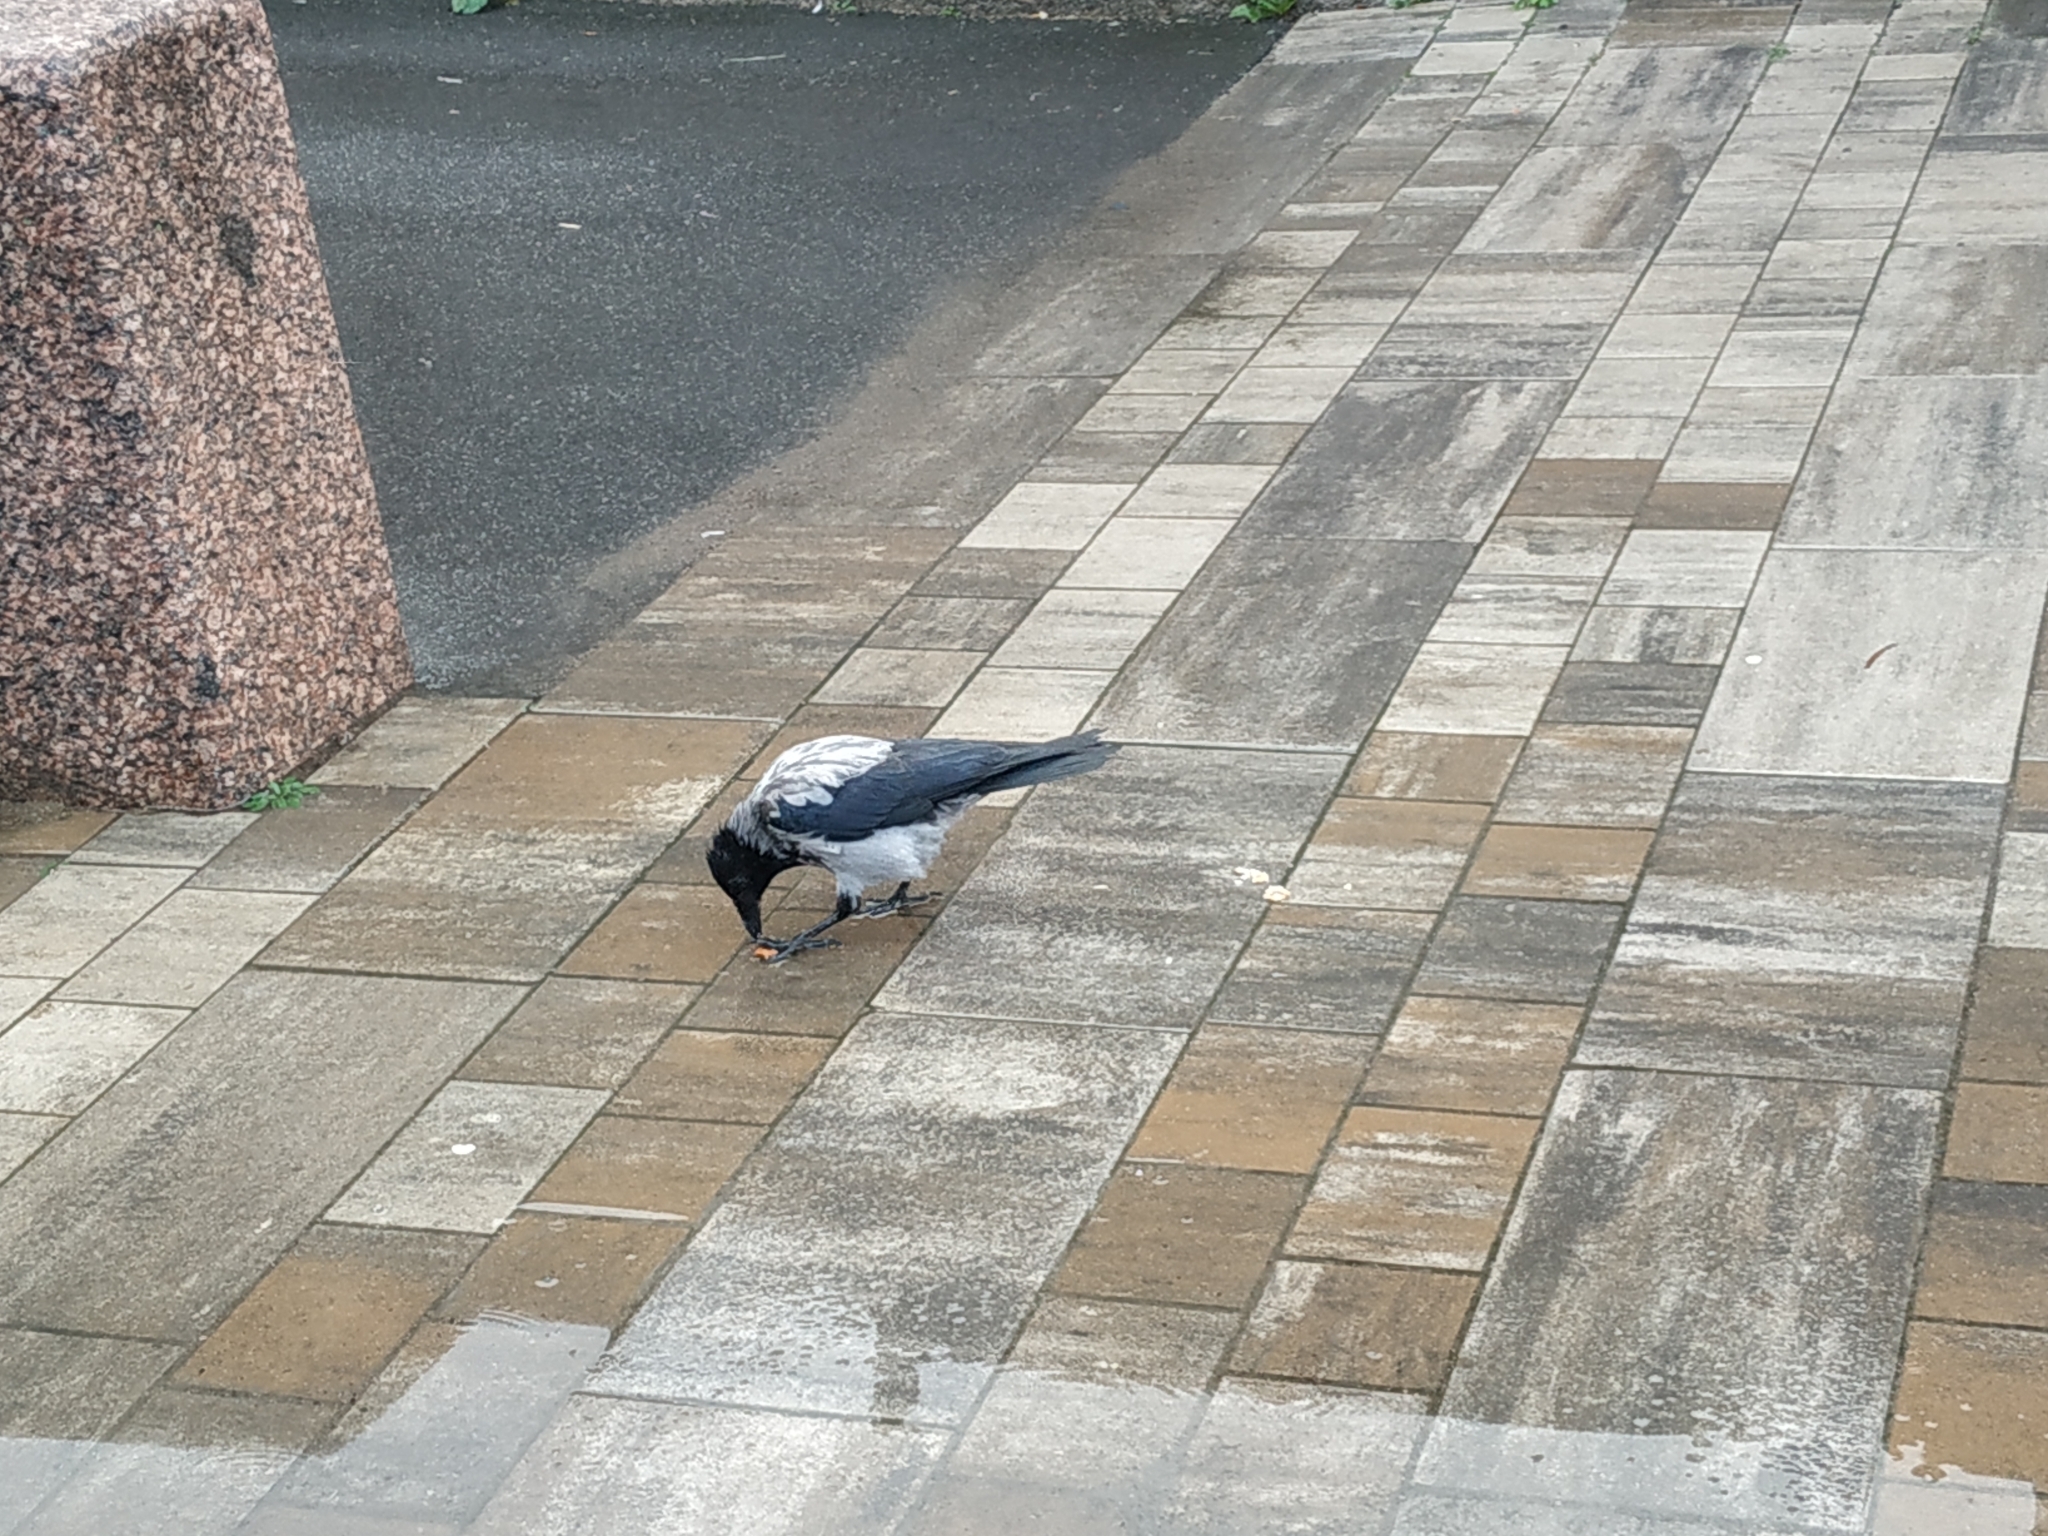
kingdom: Animalia
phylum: Chordata
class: Aves
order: Passeriformes
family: Corvidae
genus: Corvus
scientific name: Corvus cornix
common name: Hooded crow
